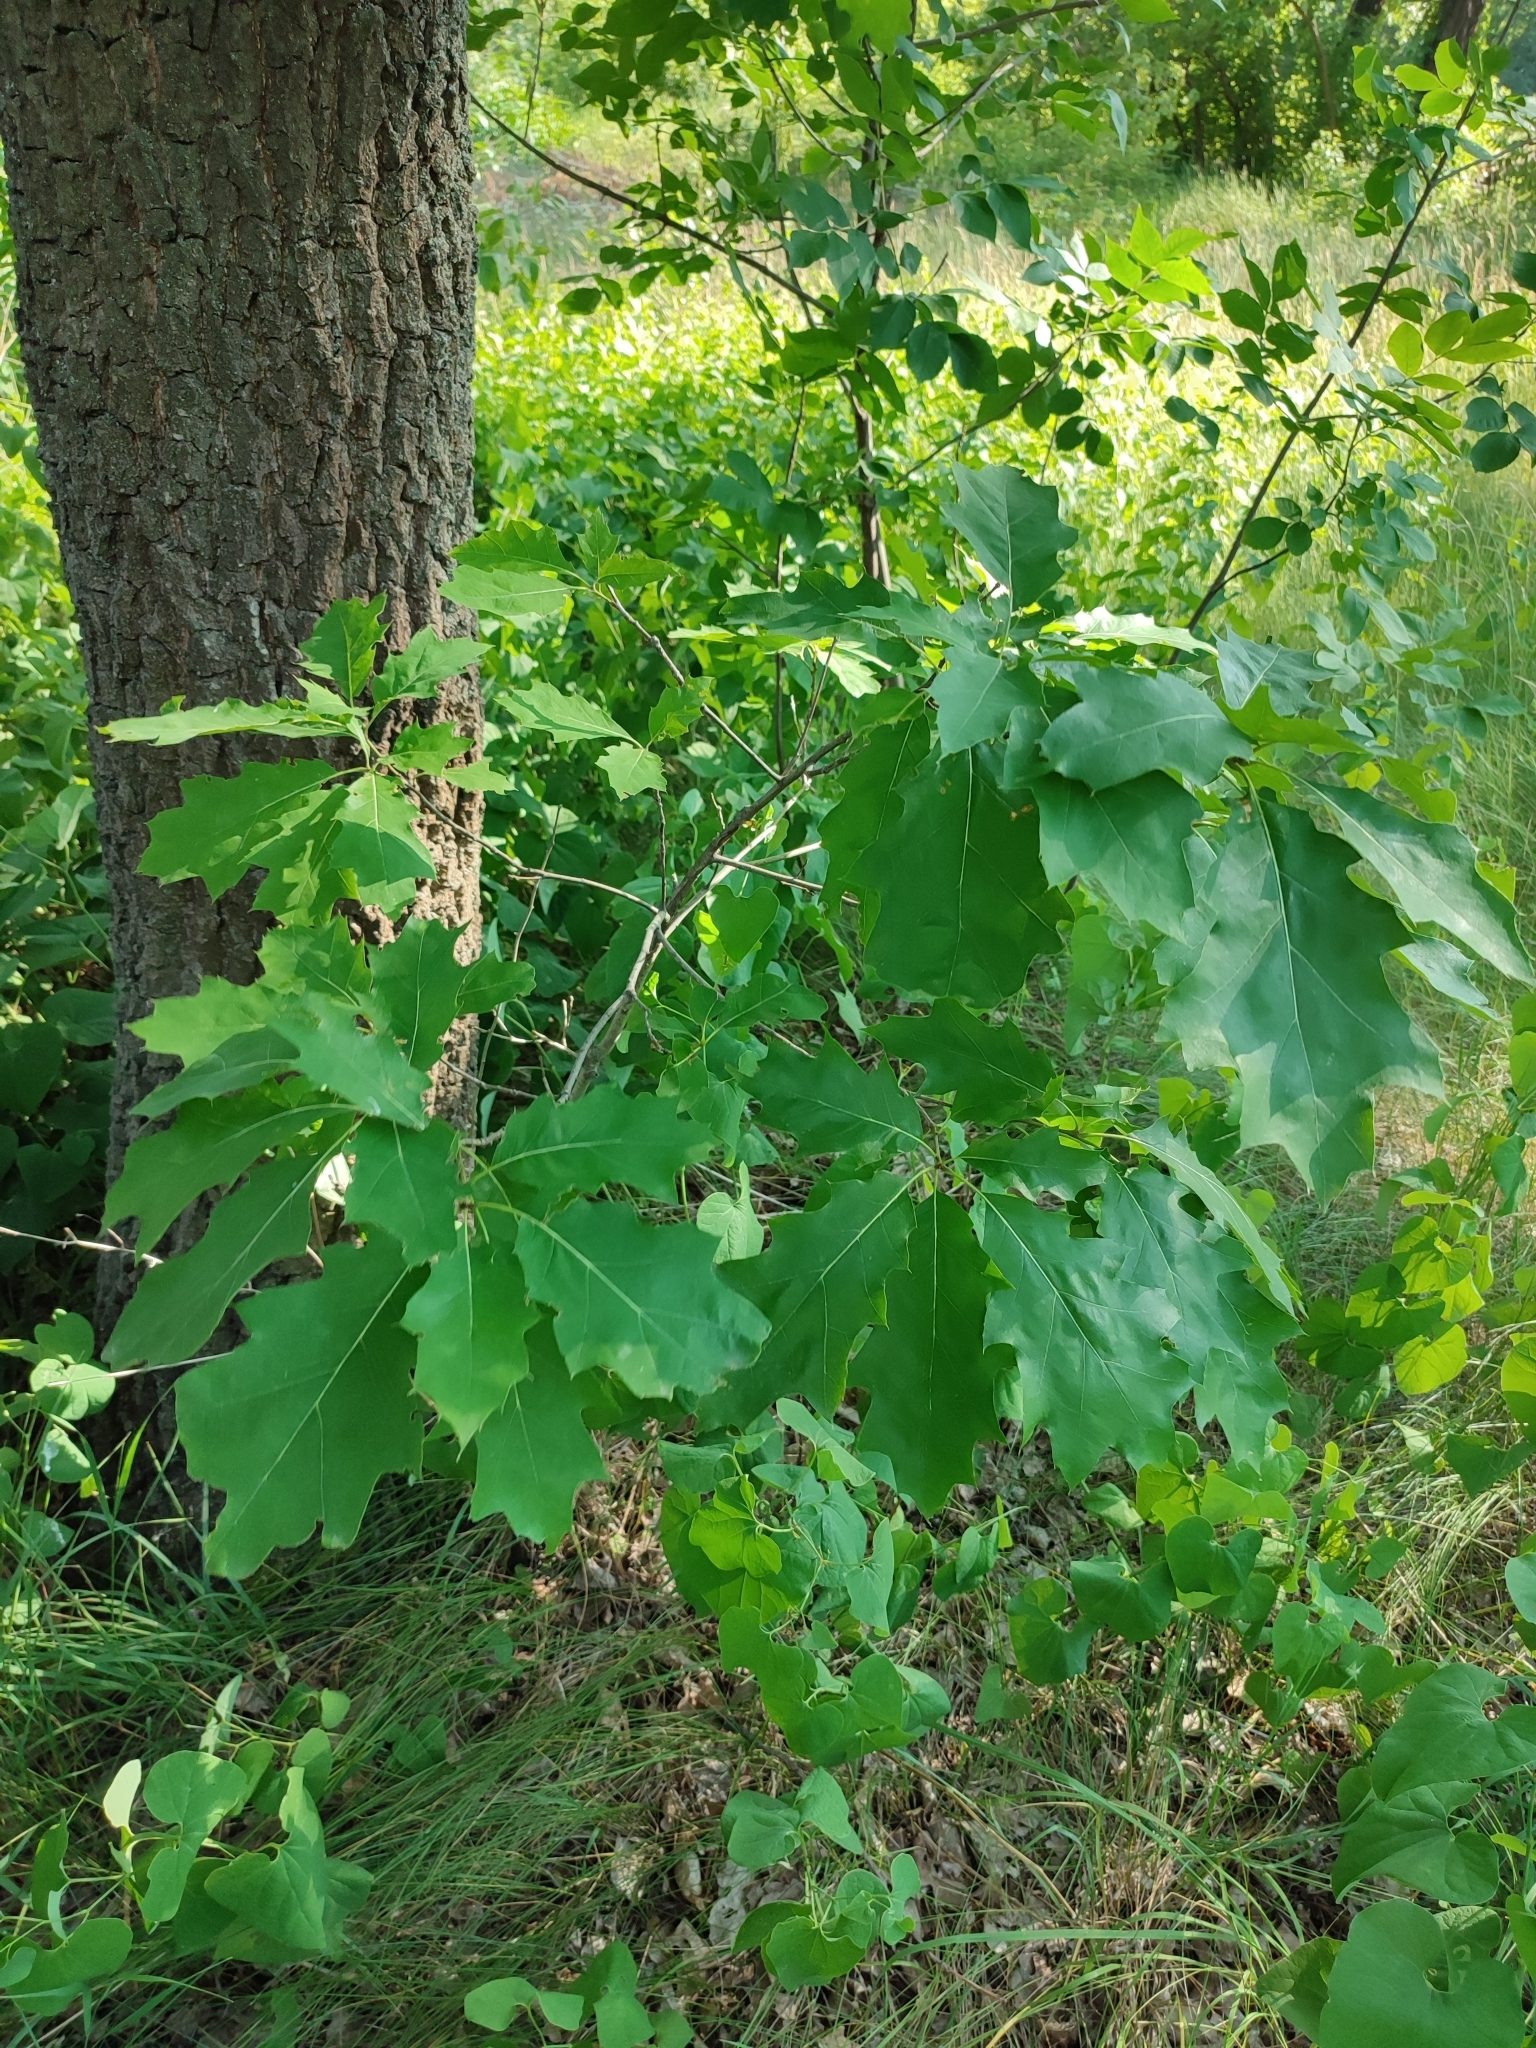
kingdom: Plantae
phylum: Tracheophyta
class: Magnoliopsida
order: Fagales
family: Fagaceae
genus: Quercus
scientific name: Quercus rubra
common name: Red oak
